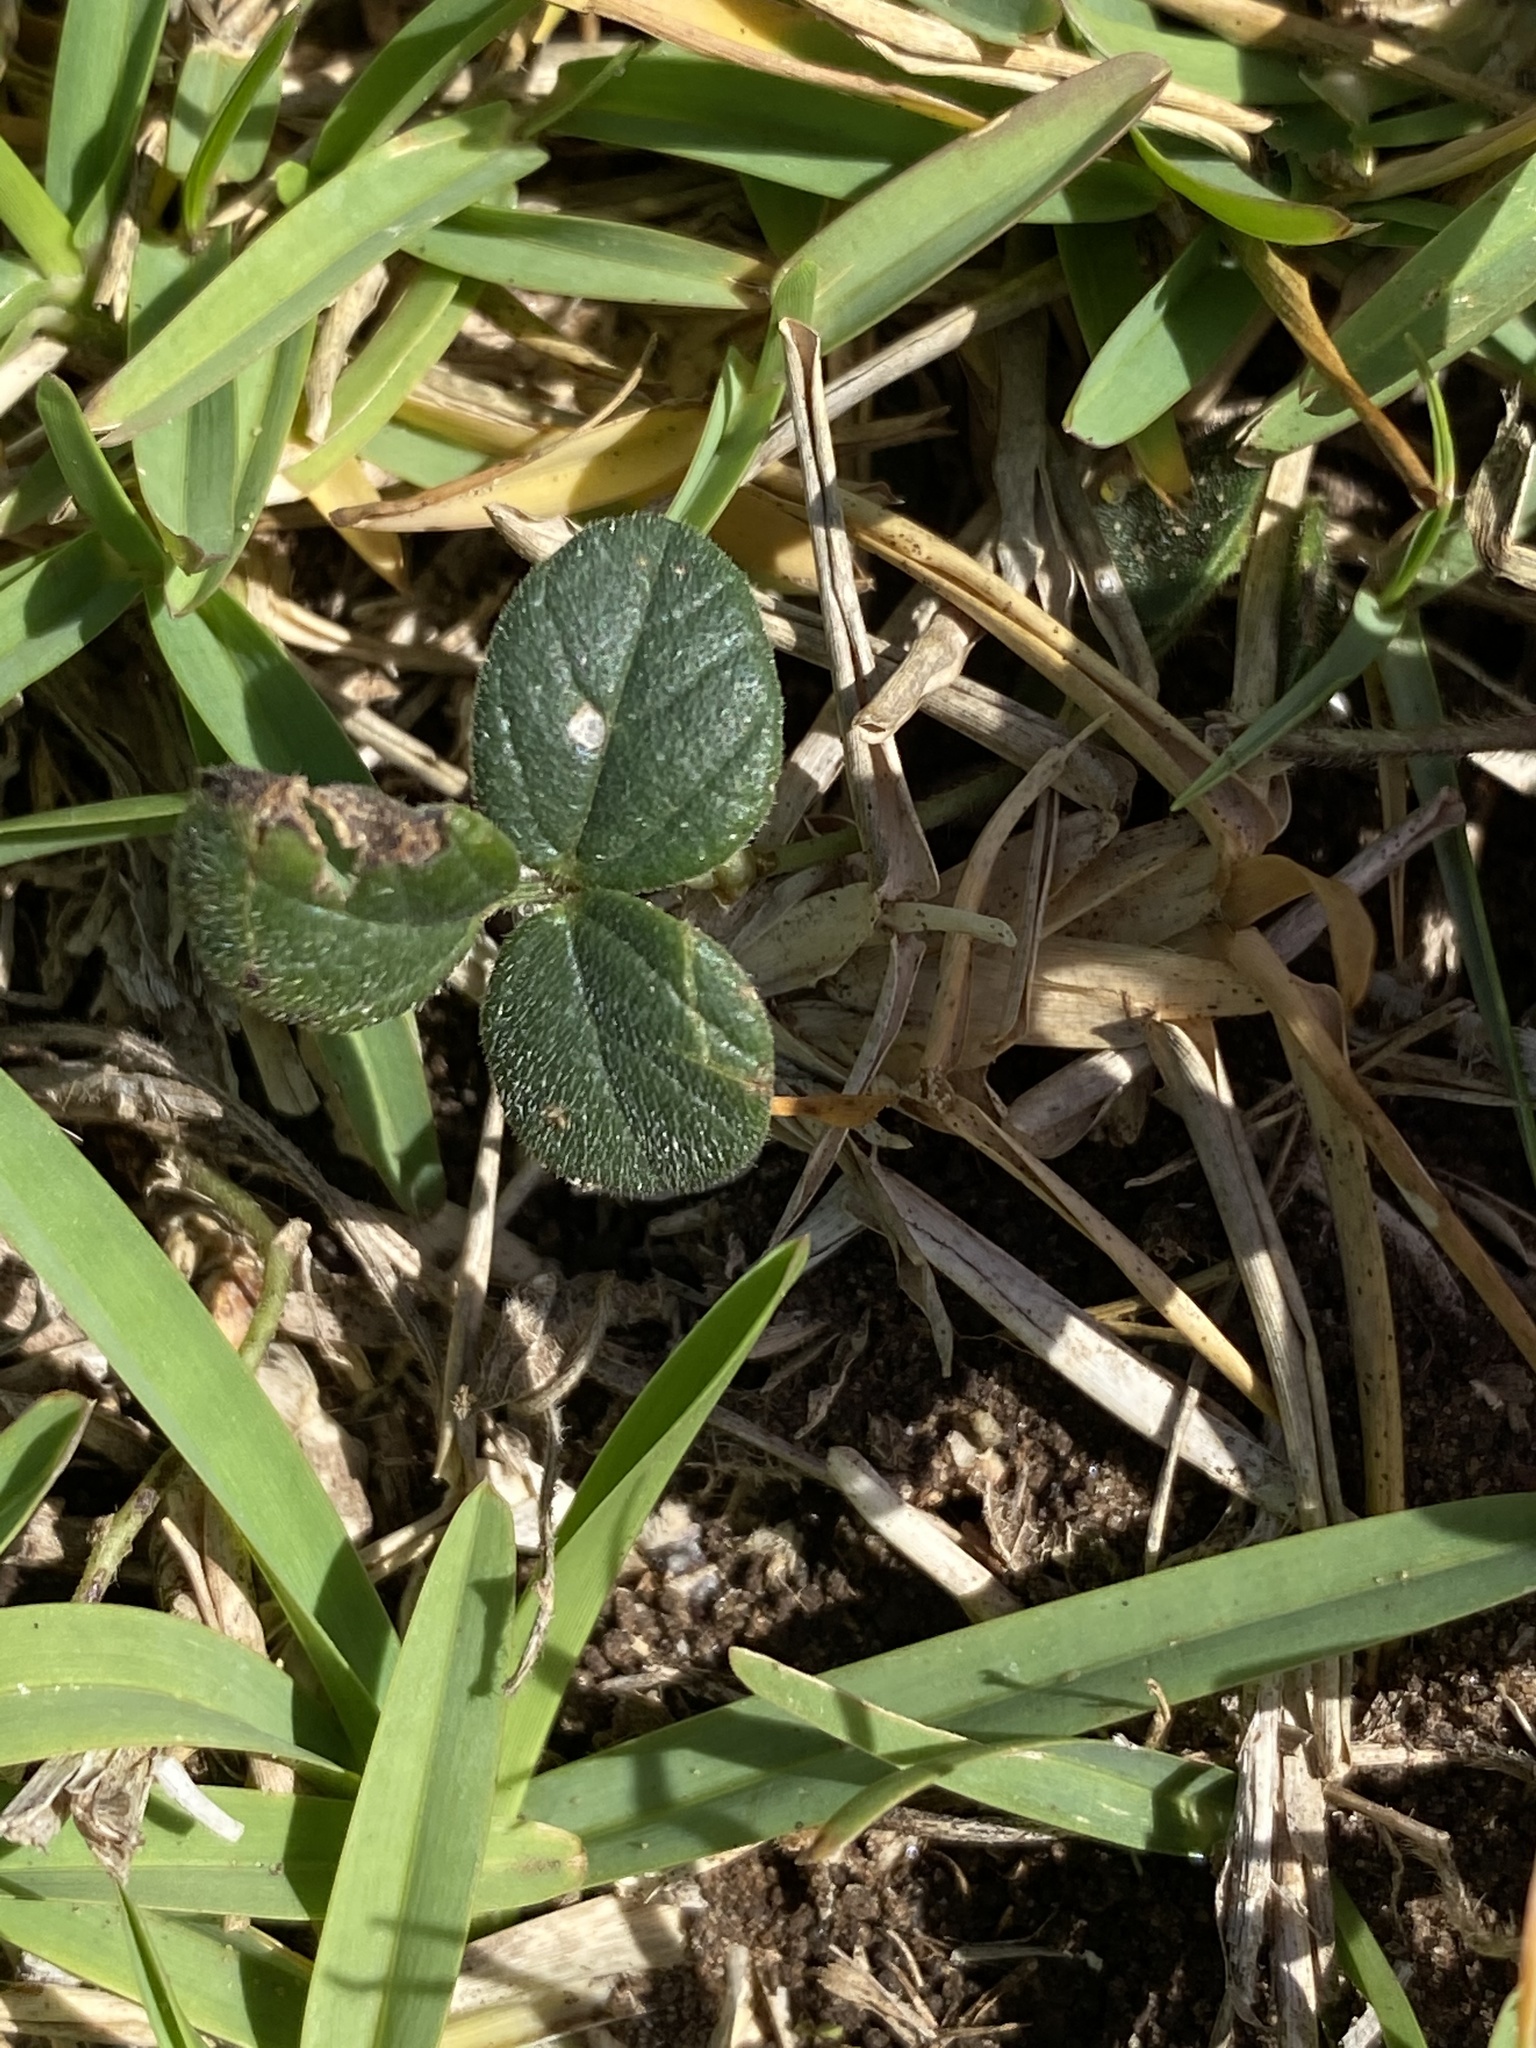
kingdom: Plantae
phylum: Tracheophyta
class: Magnoliopsida
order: Fabales
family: Fabaceae
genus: Vigna
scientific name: Vigna vexillata
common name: Zombi pea
